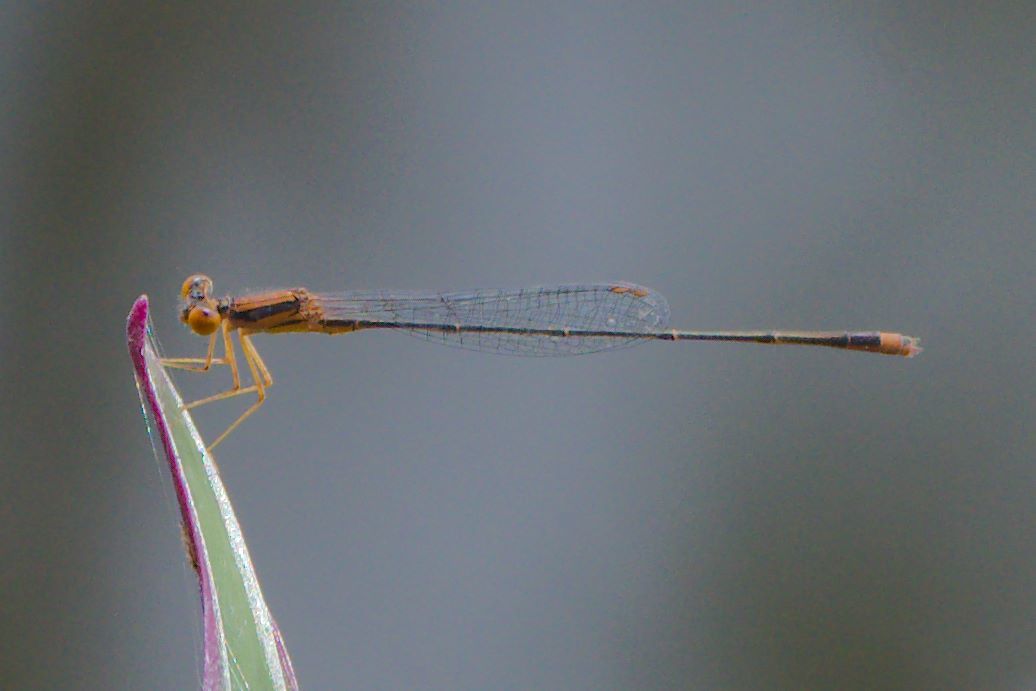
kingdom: Animalia
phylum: Arthropoda
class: Insecta
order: Odonata
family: Coenagrionidae
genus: Enallagma
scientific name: Enallagma pollutum
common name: Florida bluet
